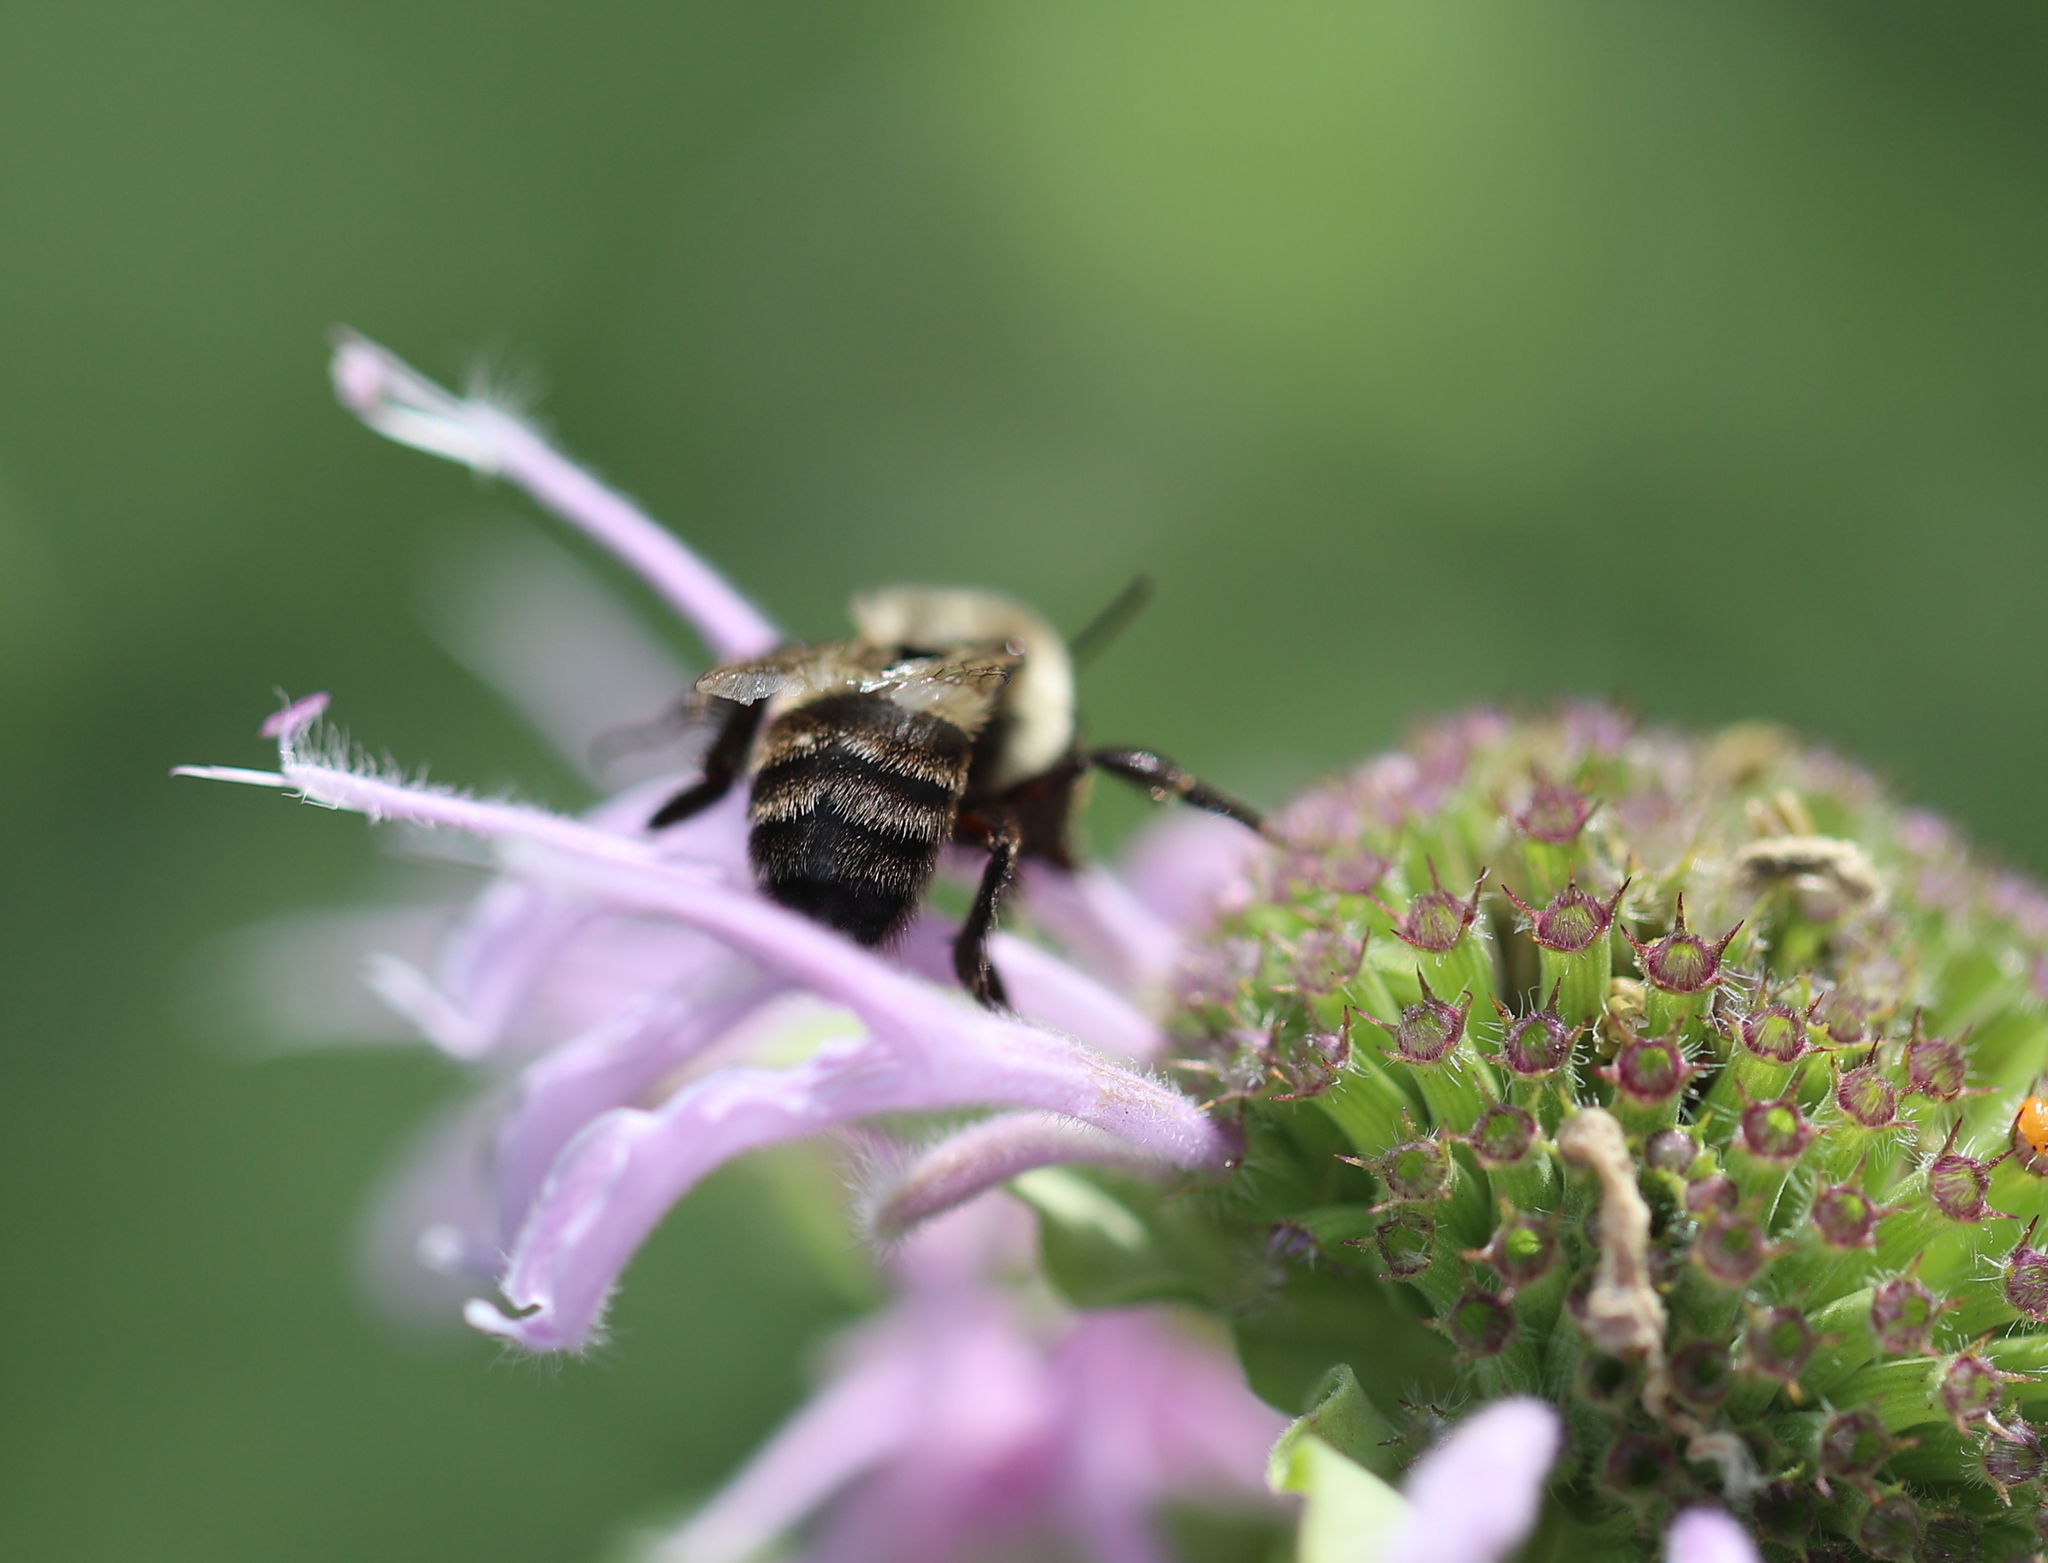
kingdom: Animalia
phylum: Arthropoda
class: Insecta
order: Hymenoptera
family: Apidae
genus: Bombus
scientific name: Bombus impatiens
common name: Common eastern bumble bee
